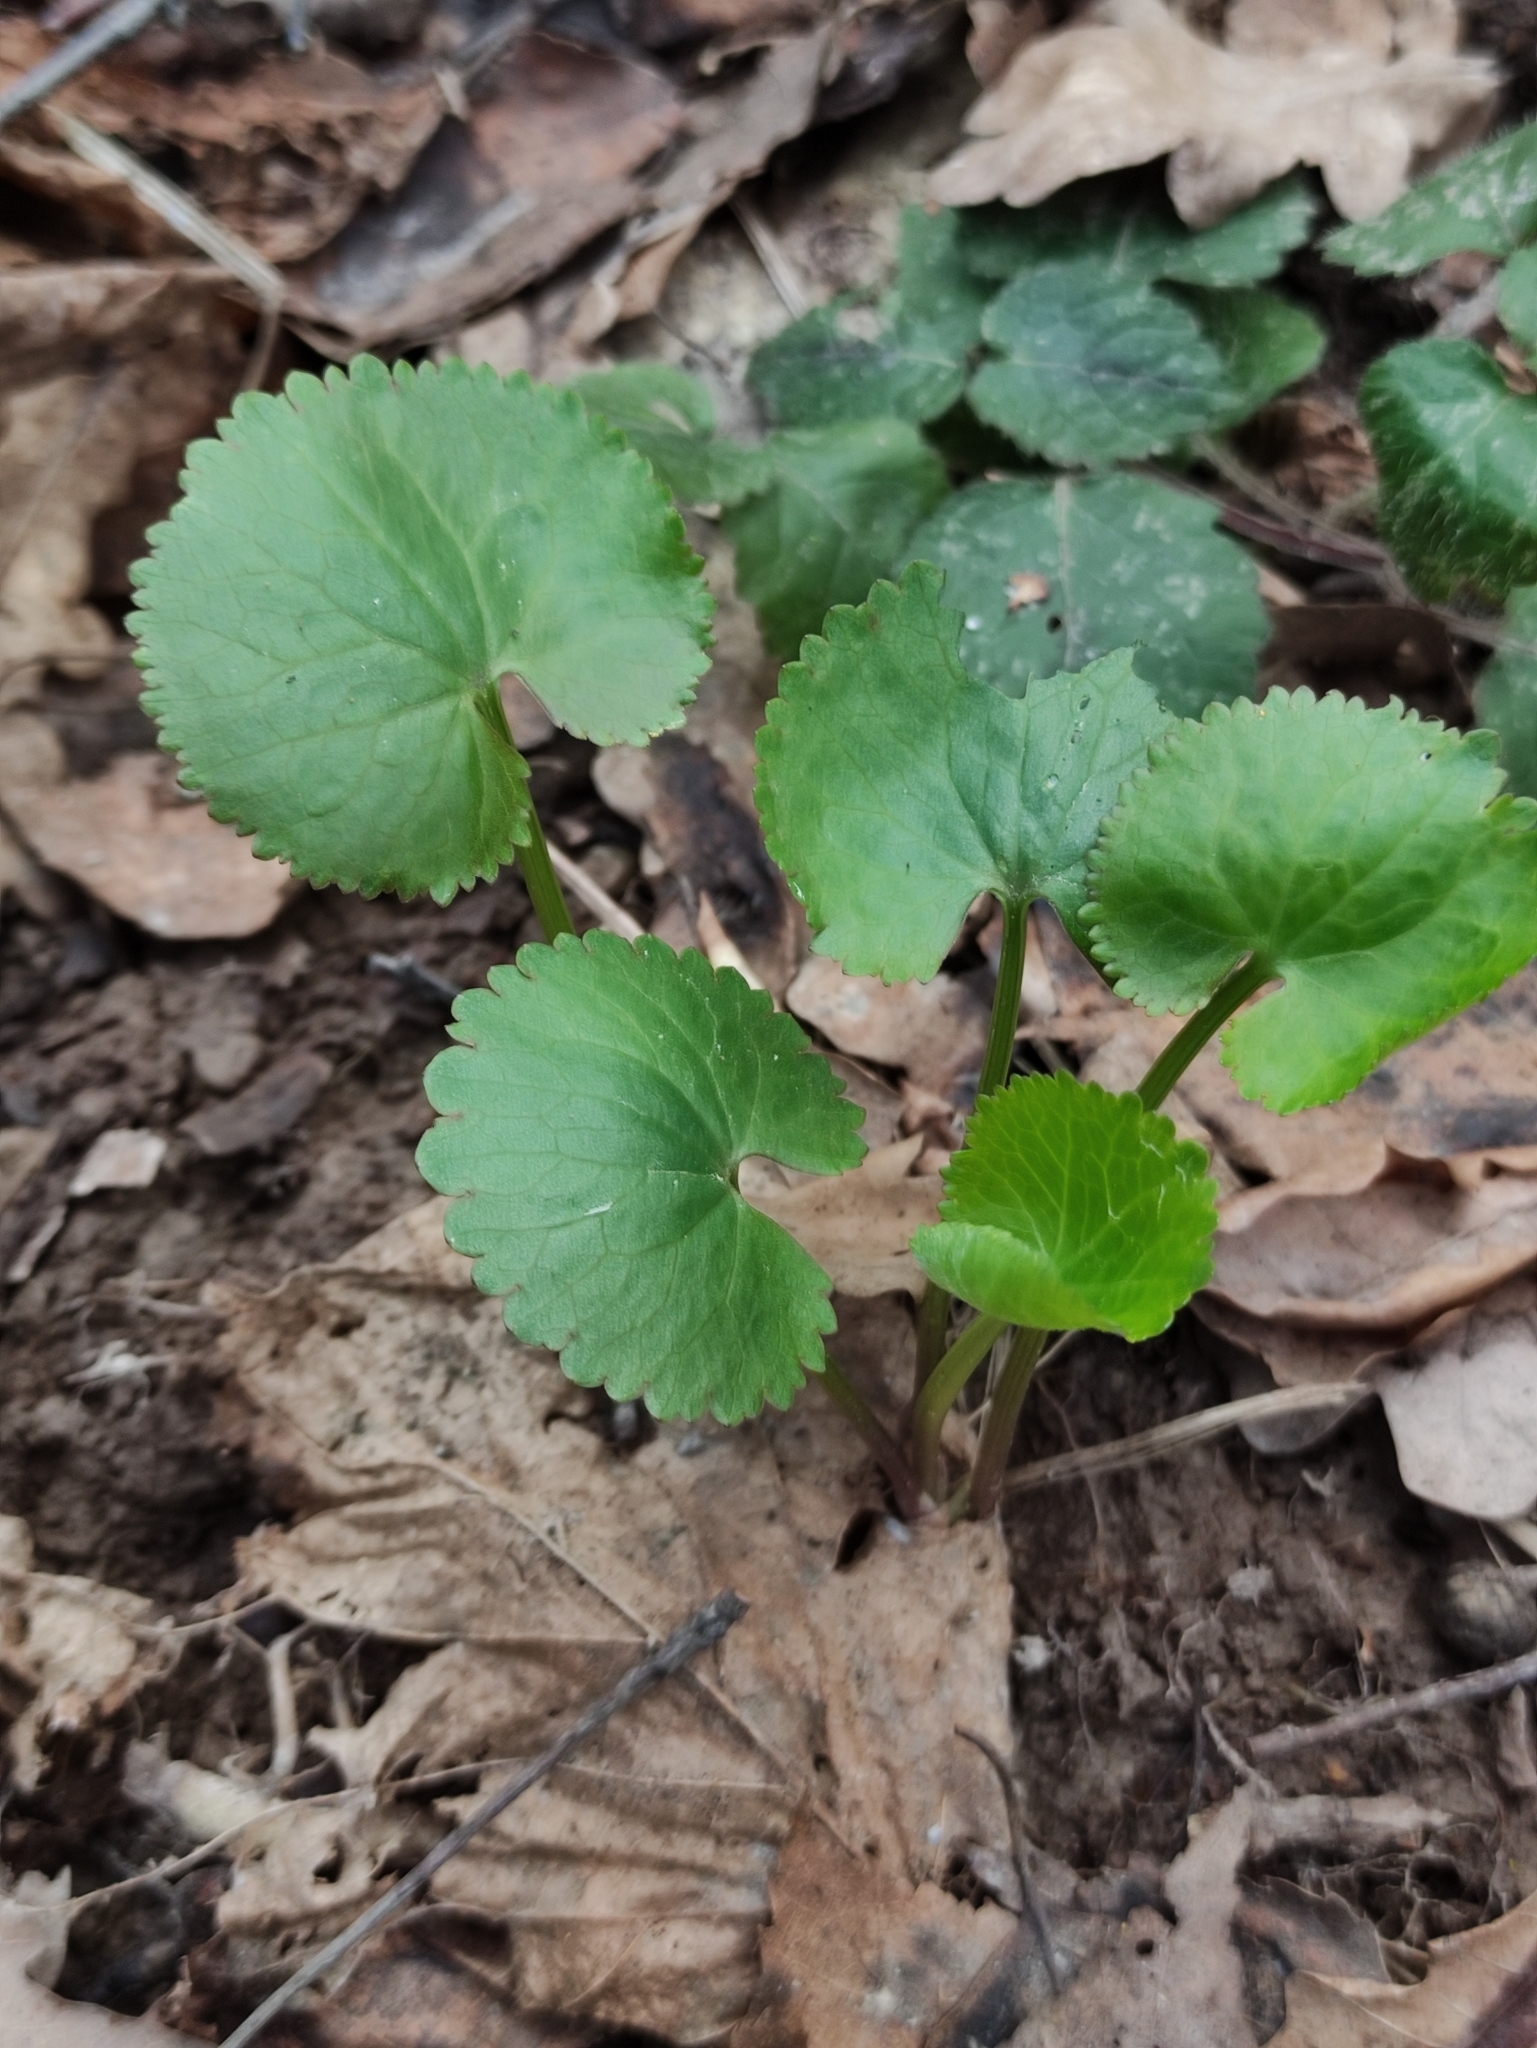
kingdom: Plantae
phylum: Tracheophyta
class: Magnoliopsida
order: Ranunculales
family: Ranunculaceae
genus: Ranunculus
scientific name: Ranunculus cassubicus
